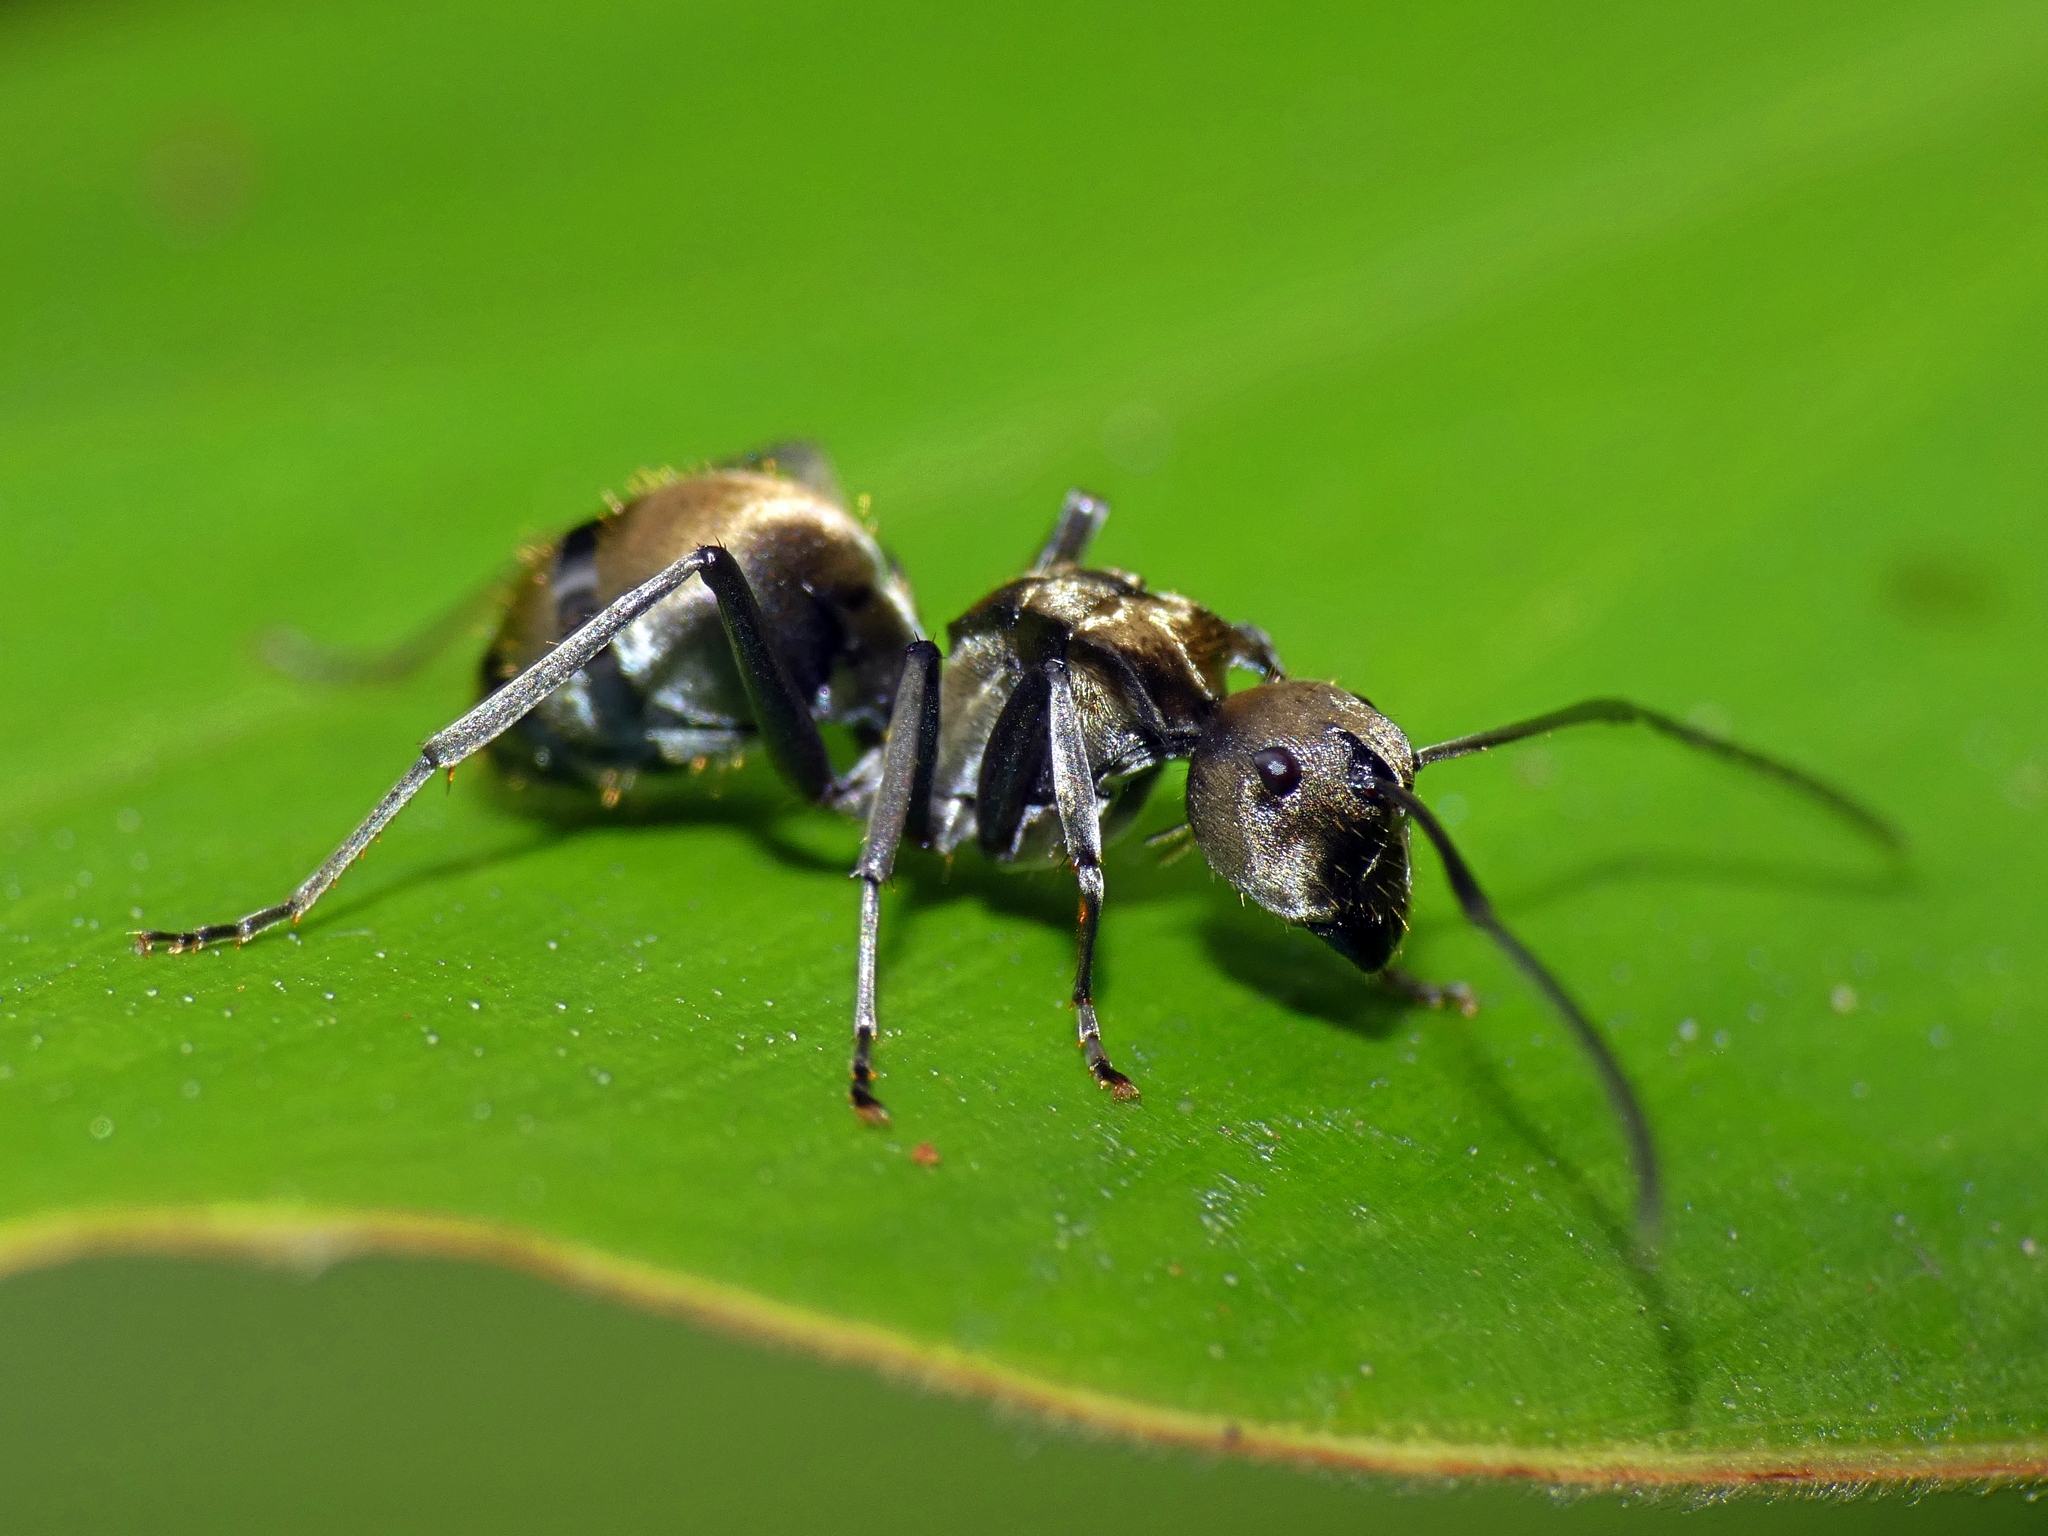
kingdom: Animalia
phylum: Arthropoda
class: Insecta
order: Hymenoptera
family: Formicidae
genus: Polyrhachis
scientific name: Polyrhachis foreli
